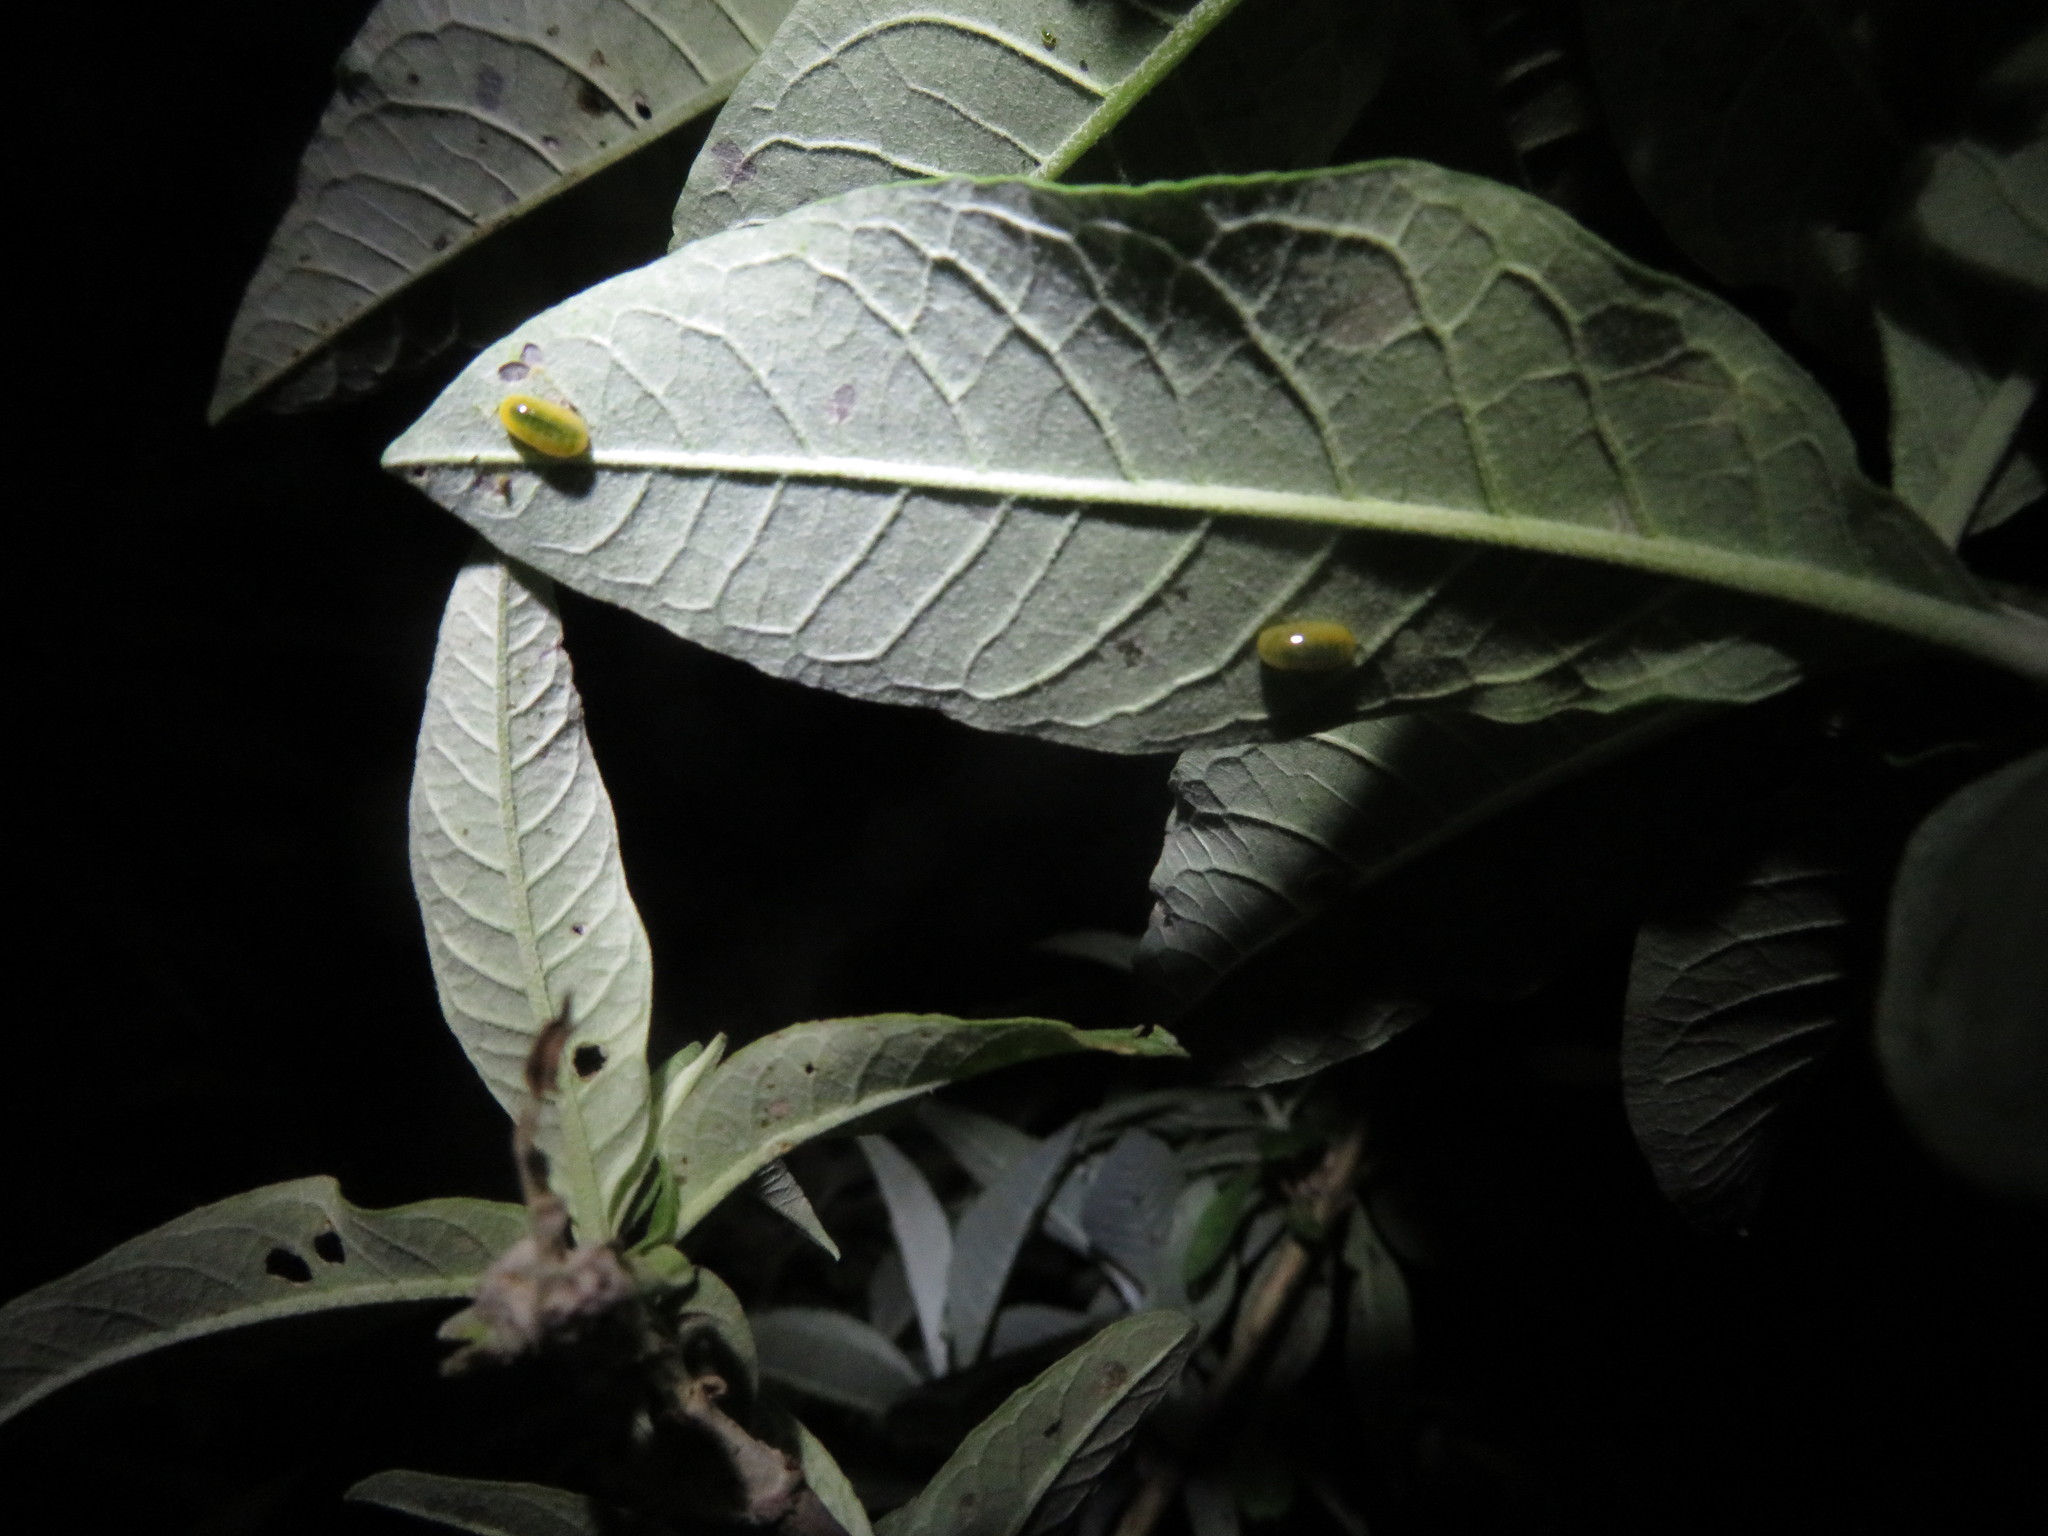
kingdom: Animalia
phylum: Arthropoda
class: Insecta
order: Coleoptera
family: Curculionidae
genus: Cleopus
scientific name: Cleopus japonicus
